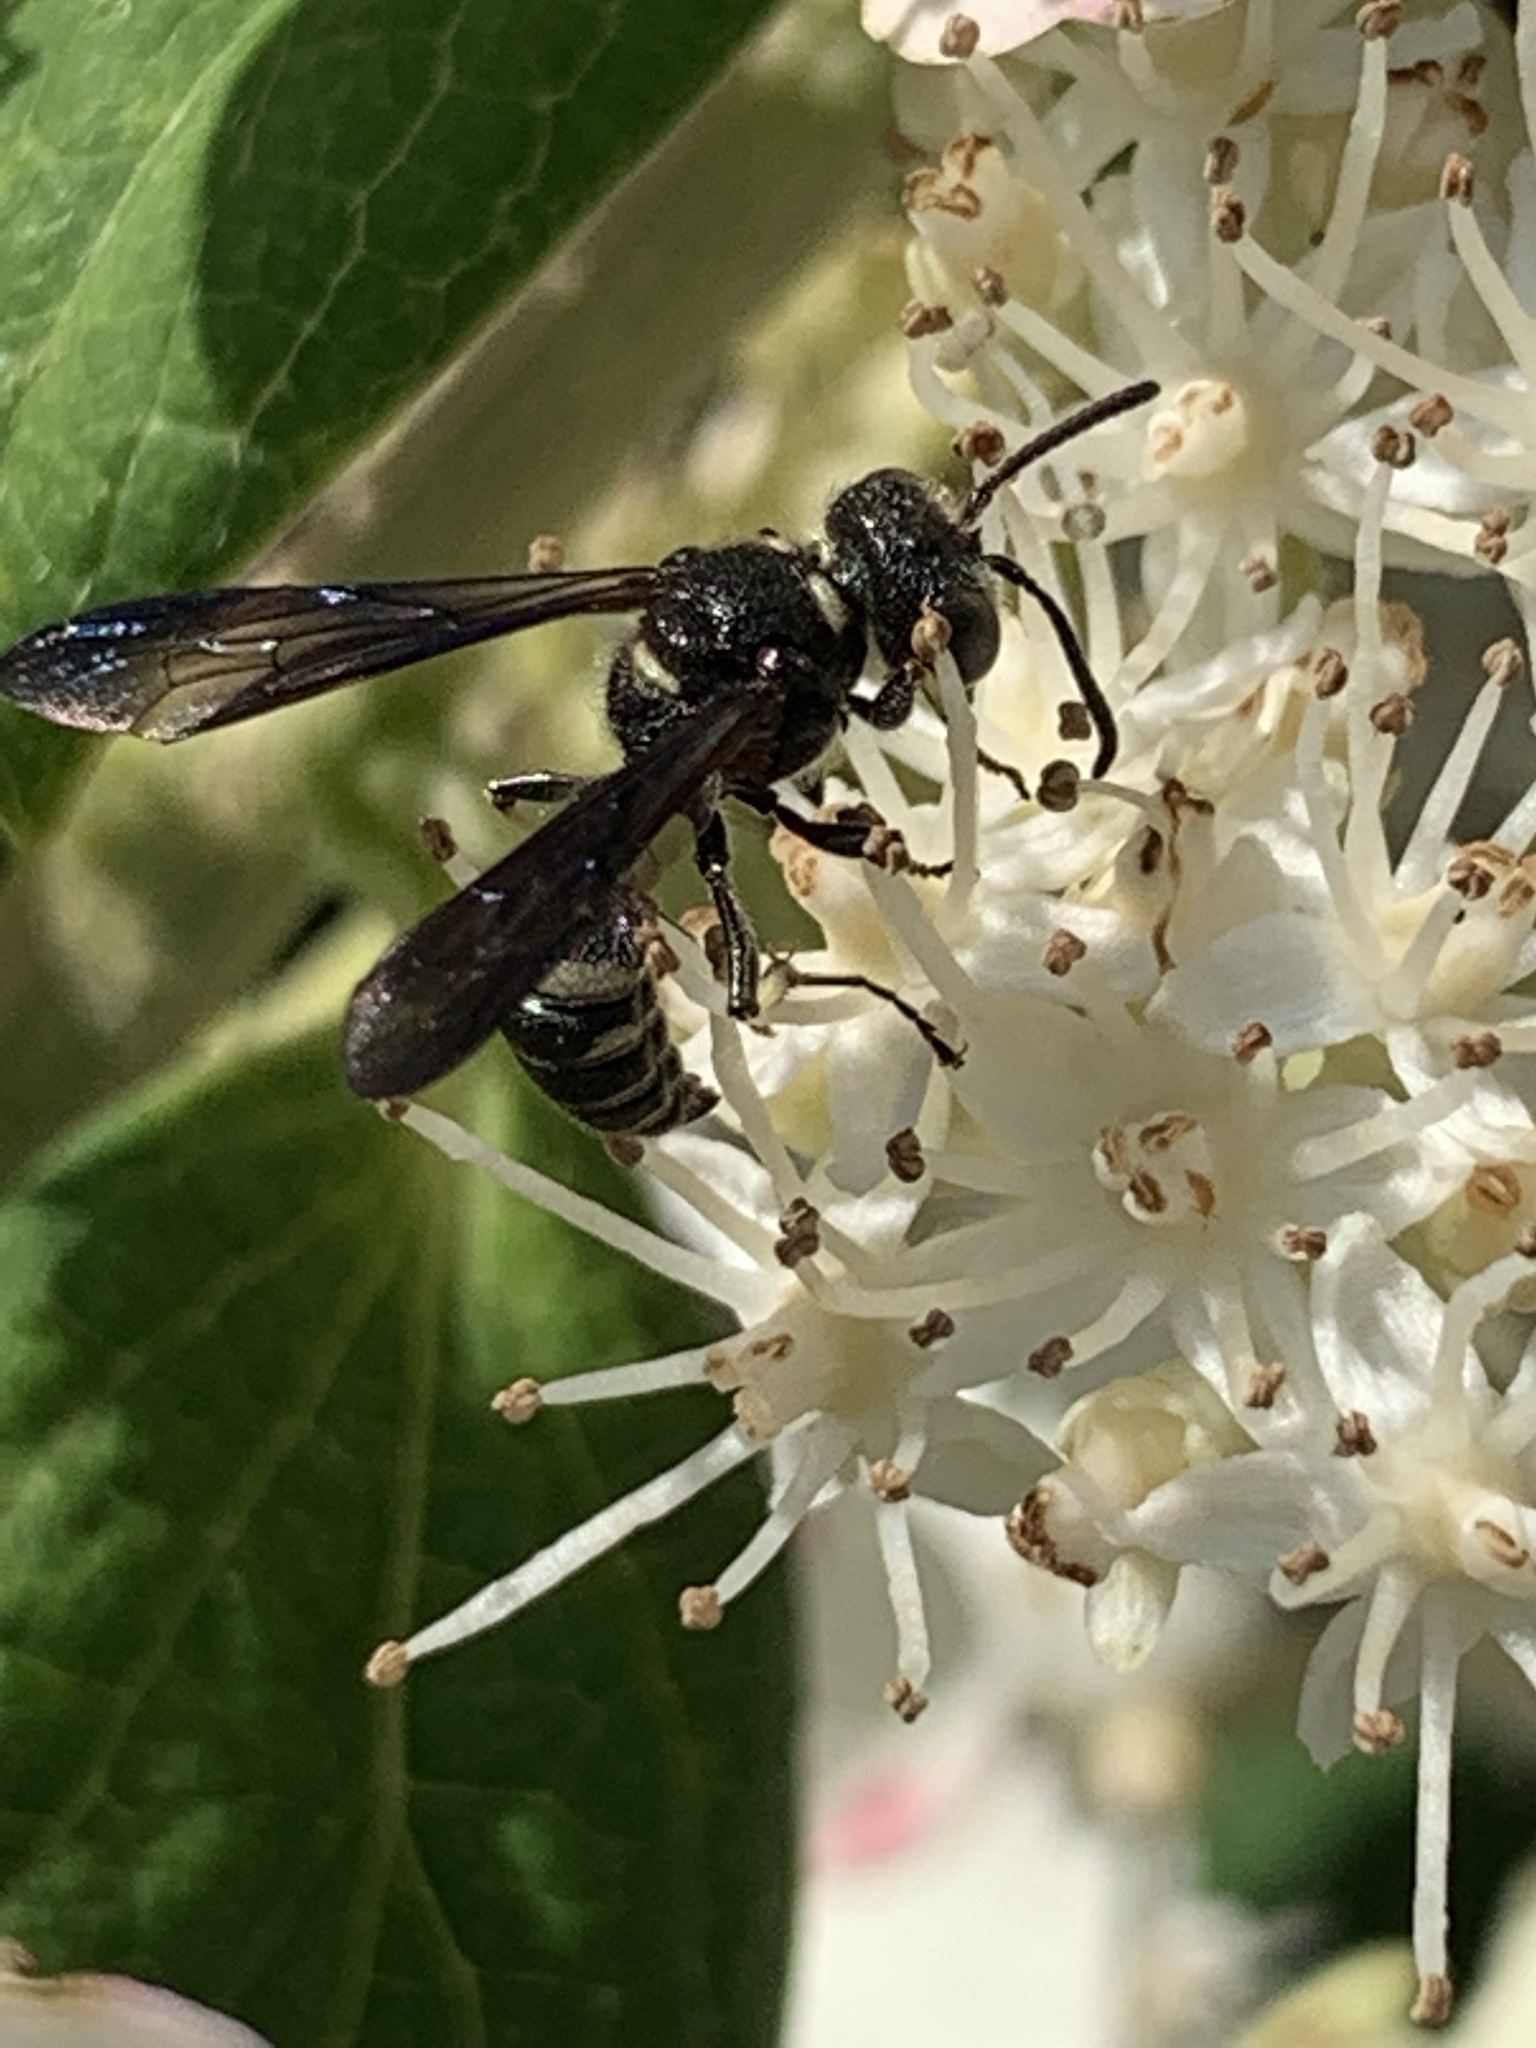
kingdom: Animalia
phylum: Arthropoda
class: Insecta
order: Hymenoptera
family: Crabronidae
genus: Cerceris
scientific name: Cerceris fumipennis
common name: Smokey-winged beetle bandit wasp
